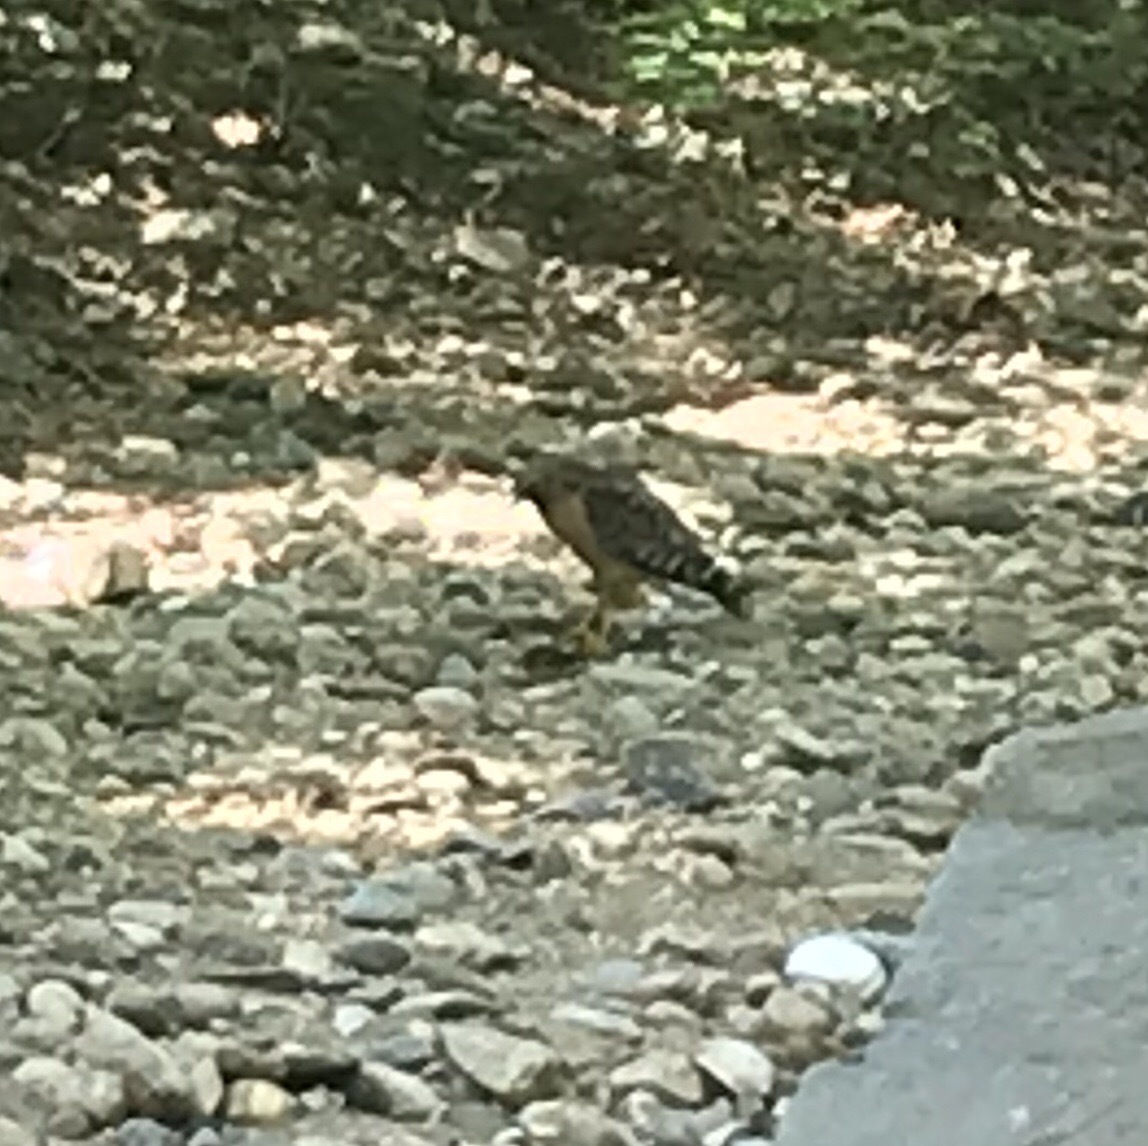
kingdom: Animalia
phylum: Chordata
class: Aves
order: Accipitriformes
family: Accipitridae
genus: Buteo
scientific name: Buteo lineatus
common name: Red-shouldered hawk
